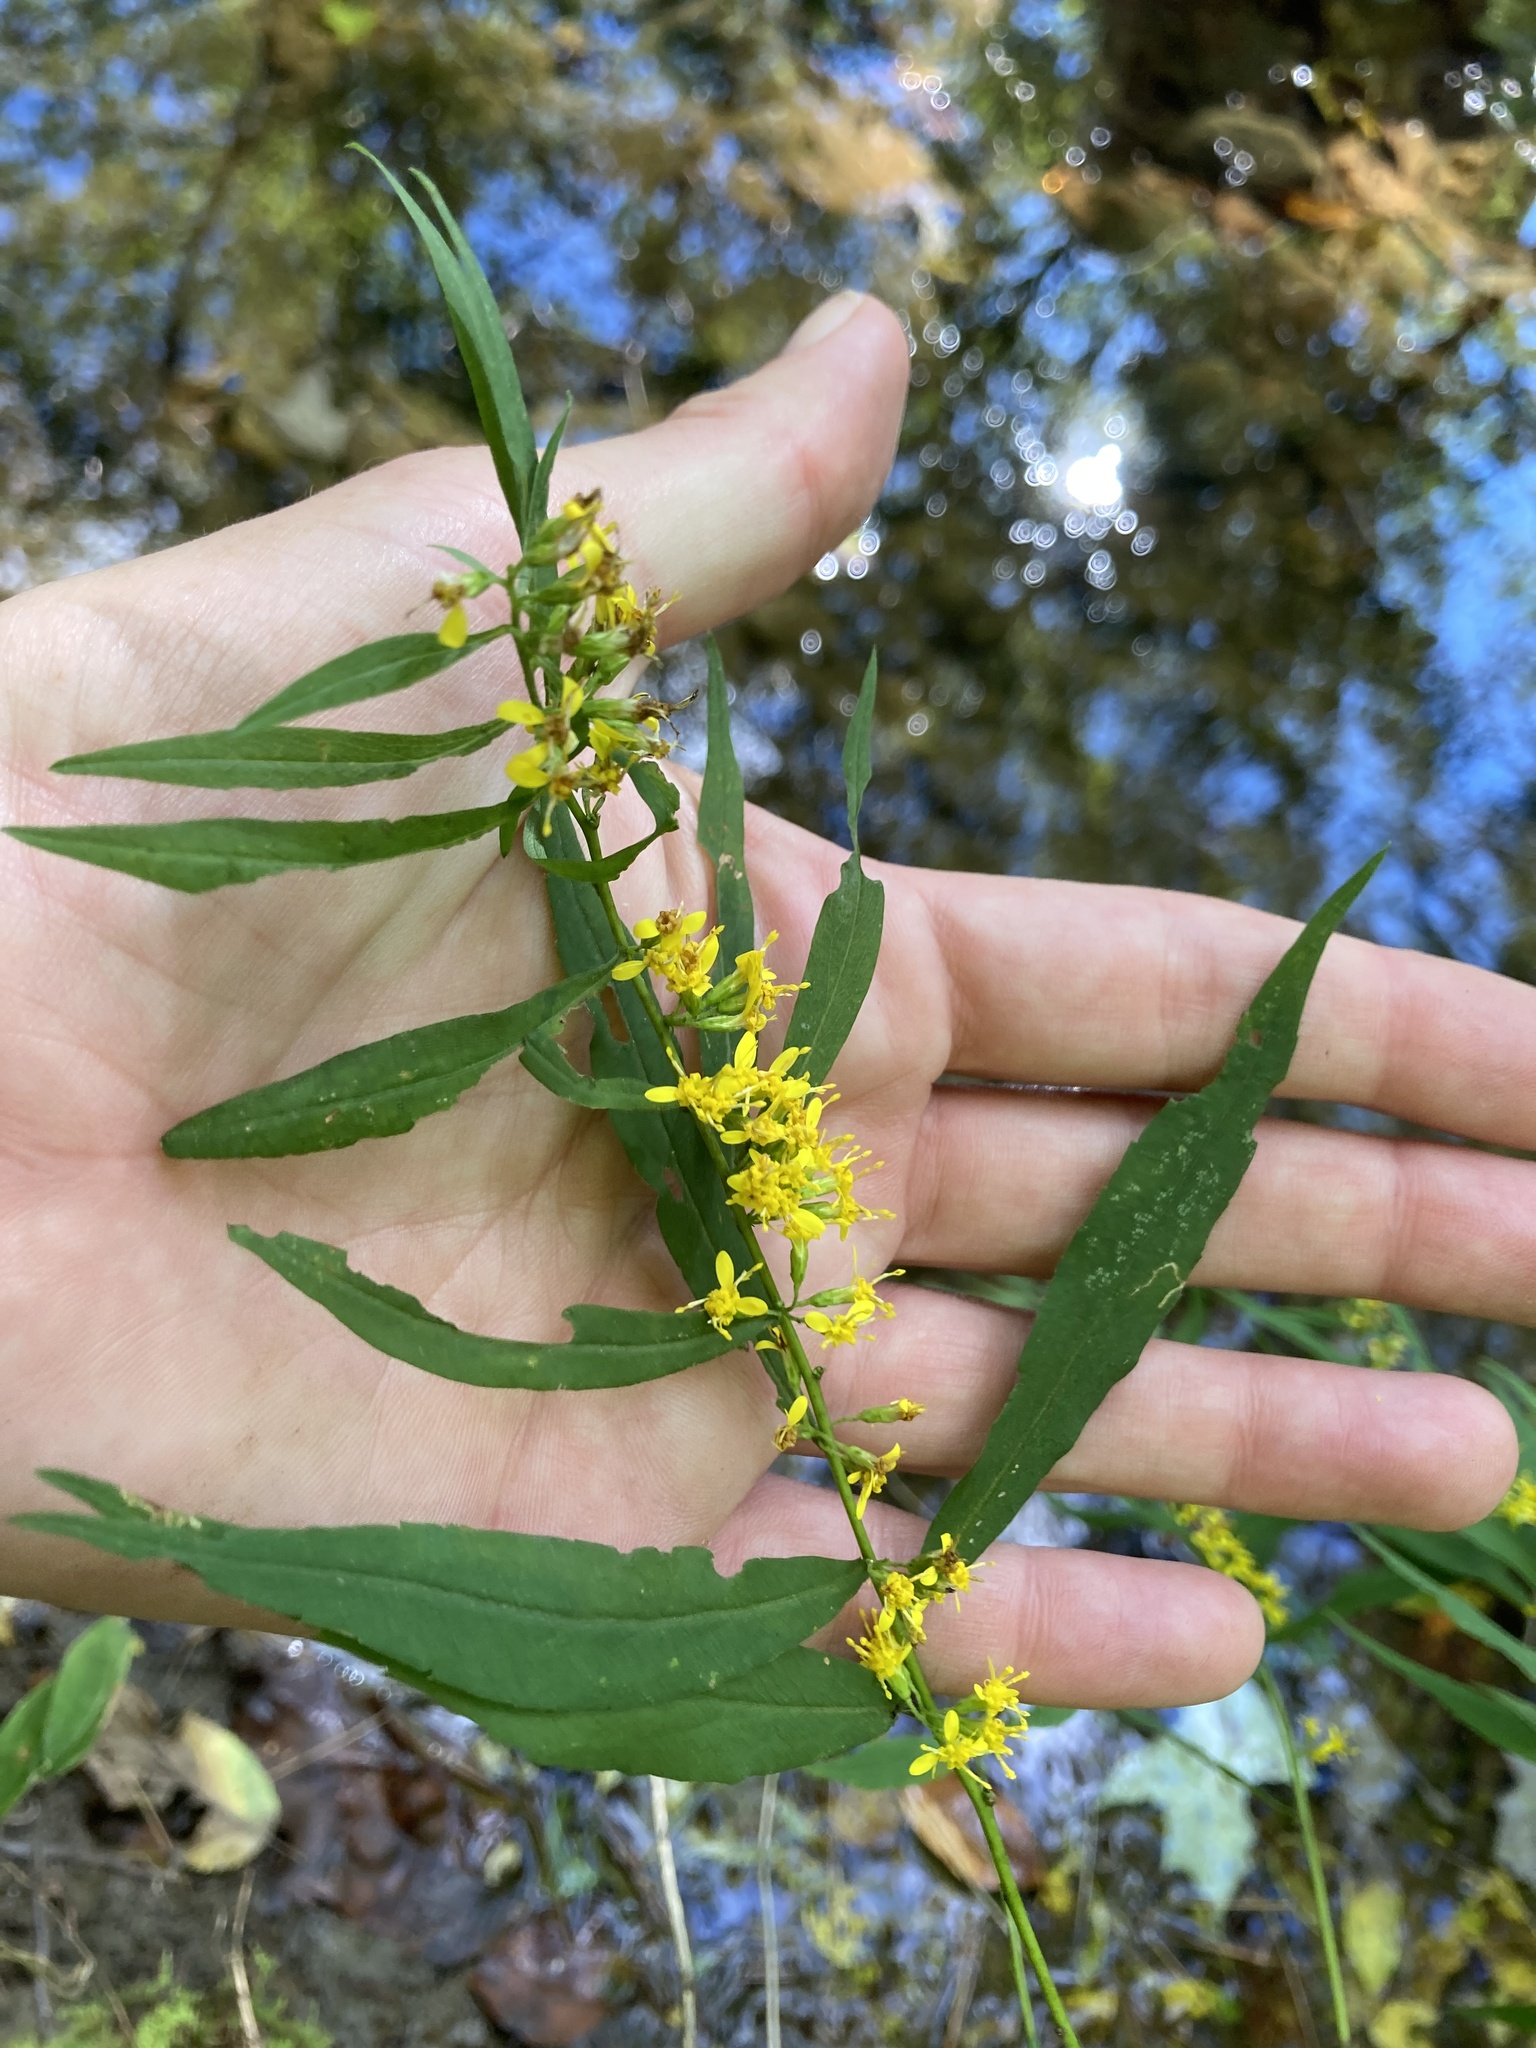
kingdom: Plantae
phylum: Tracheophyta
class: Magnoliopsida
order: Asterales
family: Asteraceae
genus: Solidago
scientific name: Solidago caesia
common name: Woodland goldenrod
